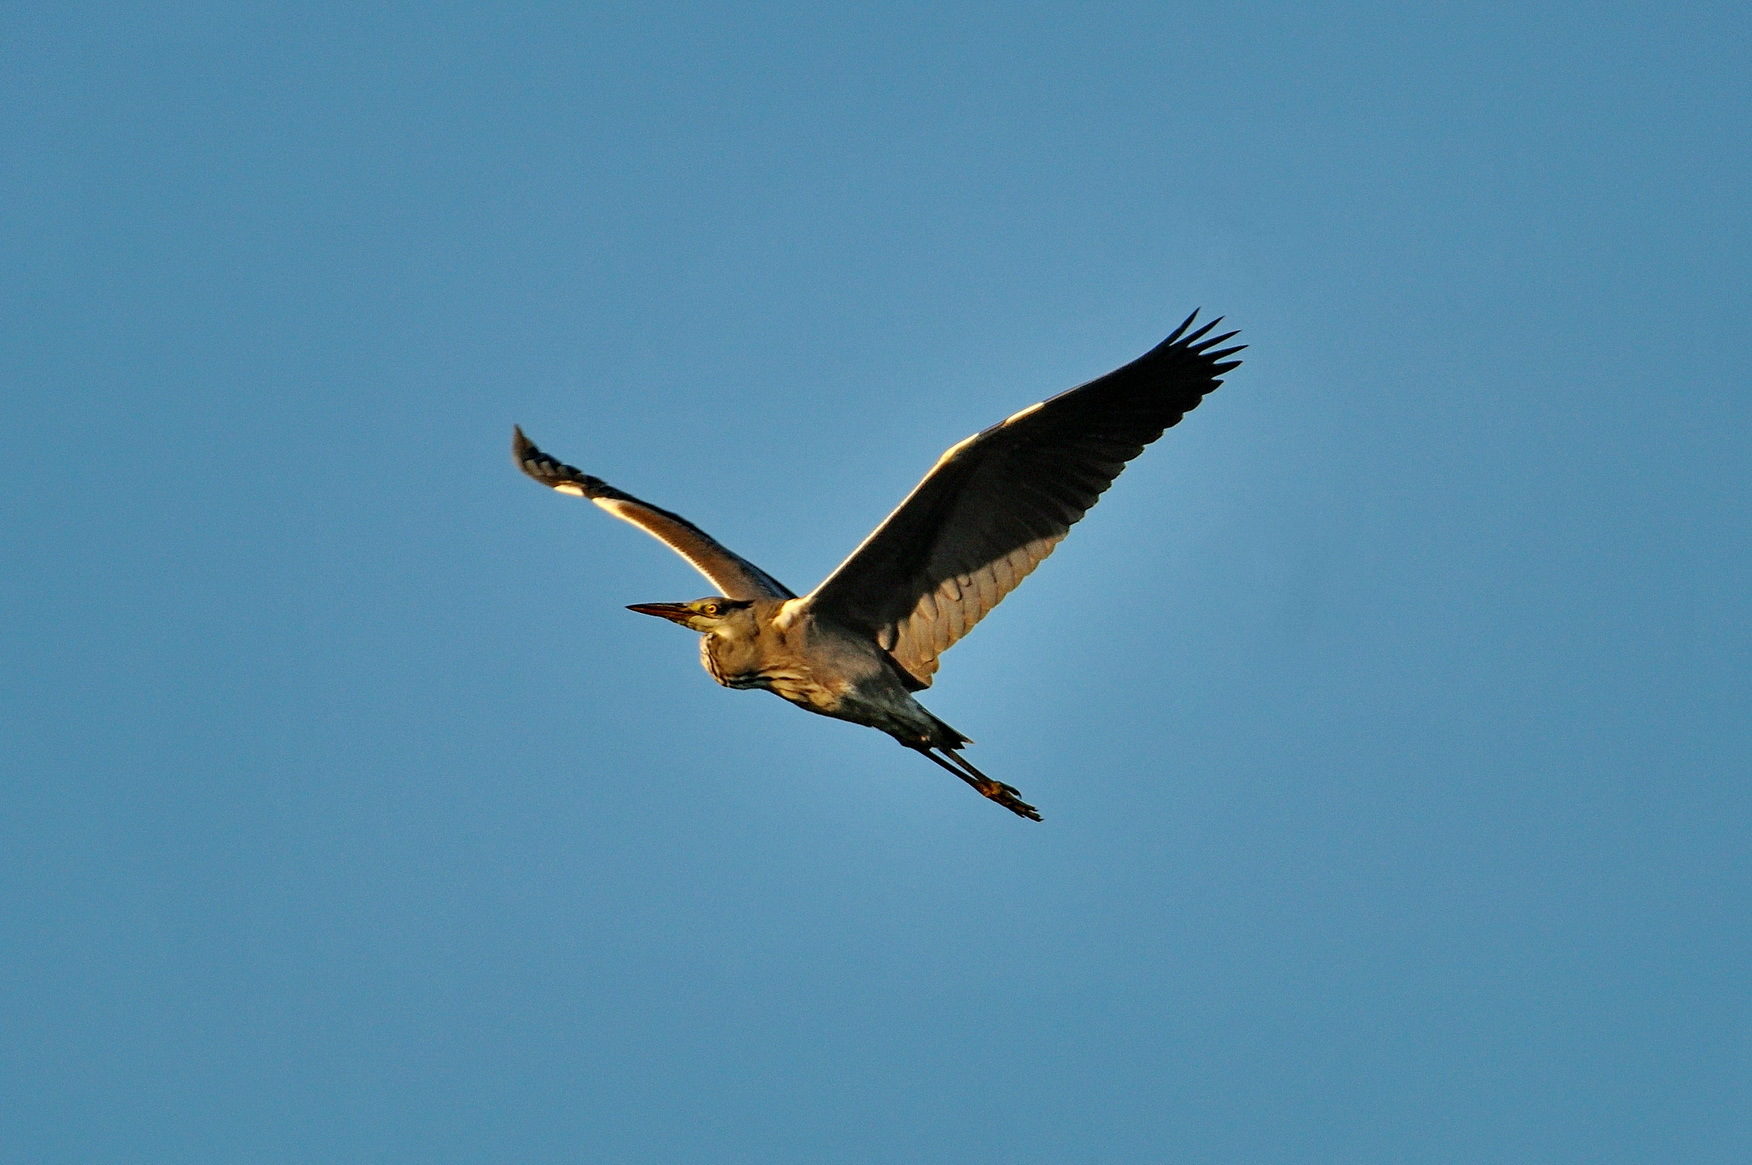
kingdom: Animalia
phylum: Chordata
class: Aves
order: Pelecaniformes
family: Ardeidae
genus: Ardea
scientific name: Ardea cinerea
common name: Grey heron
